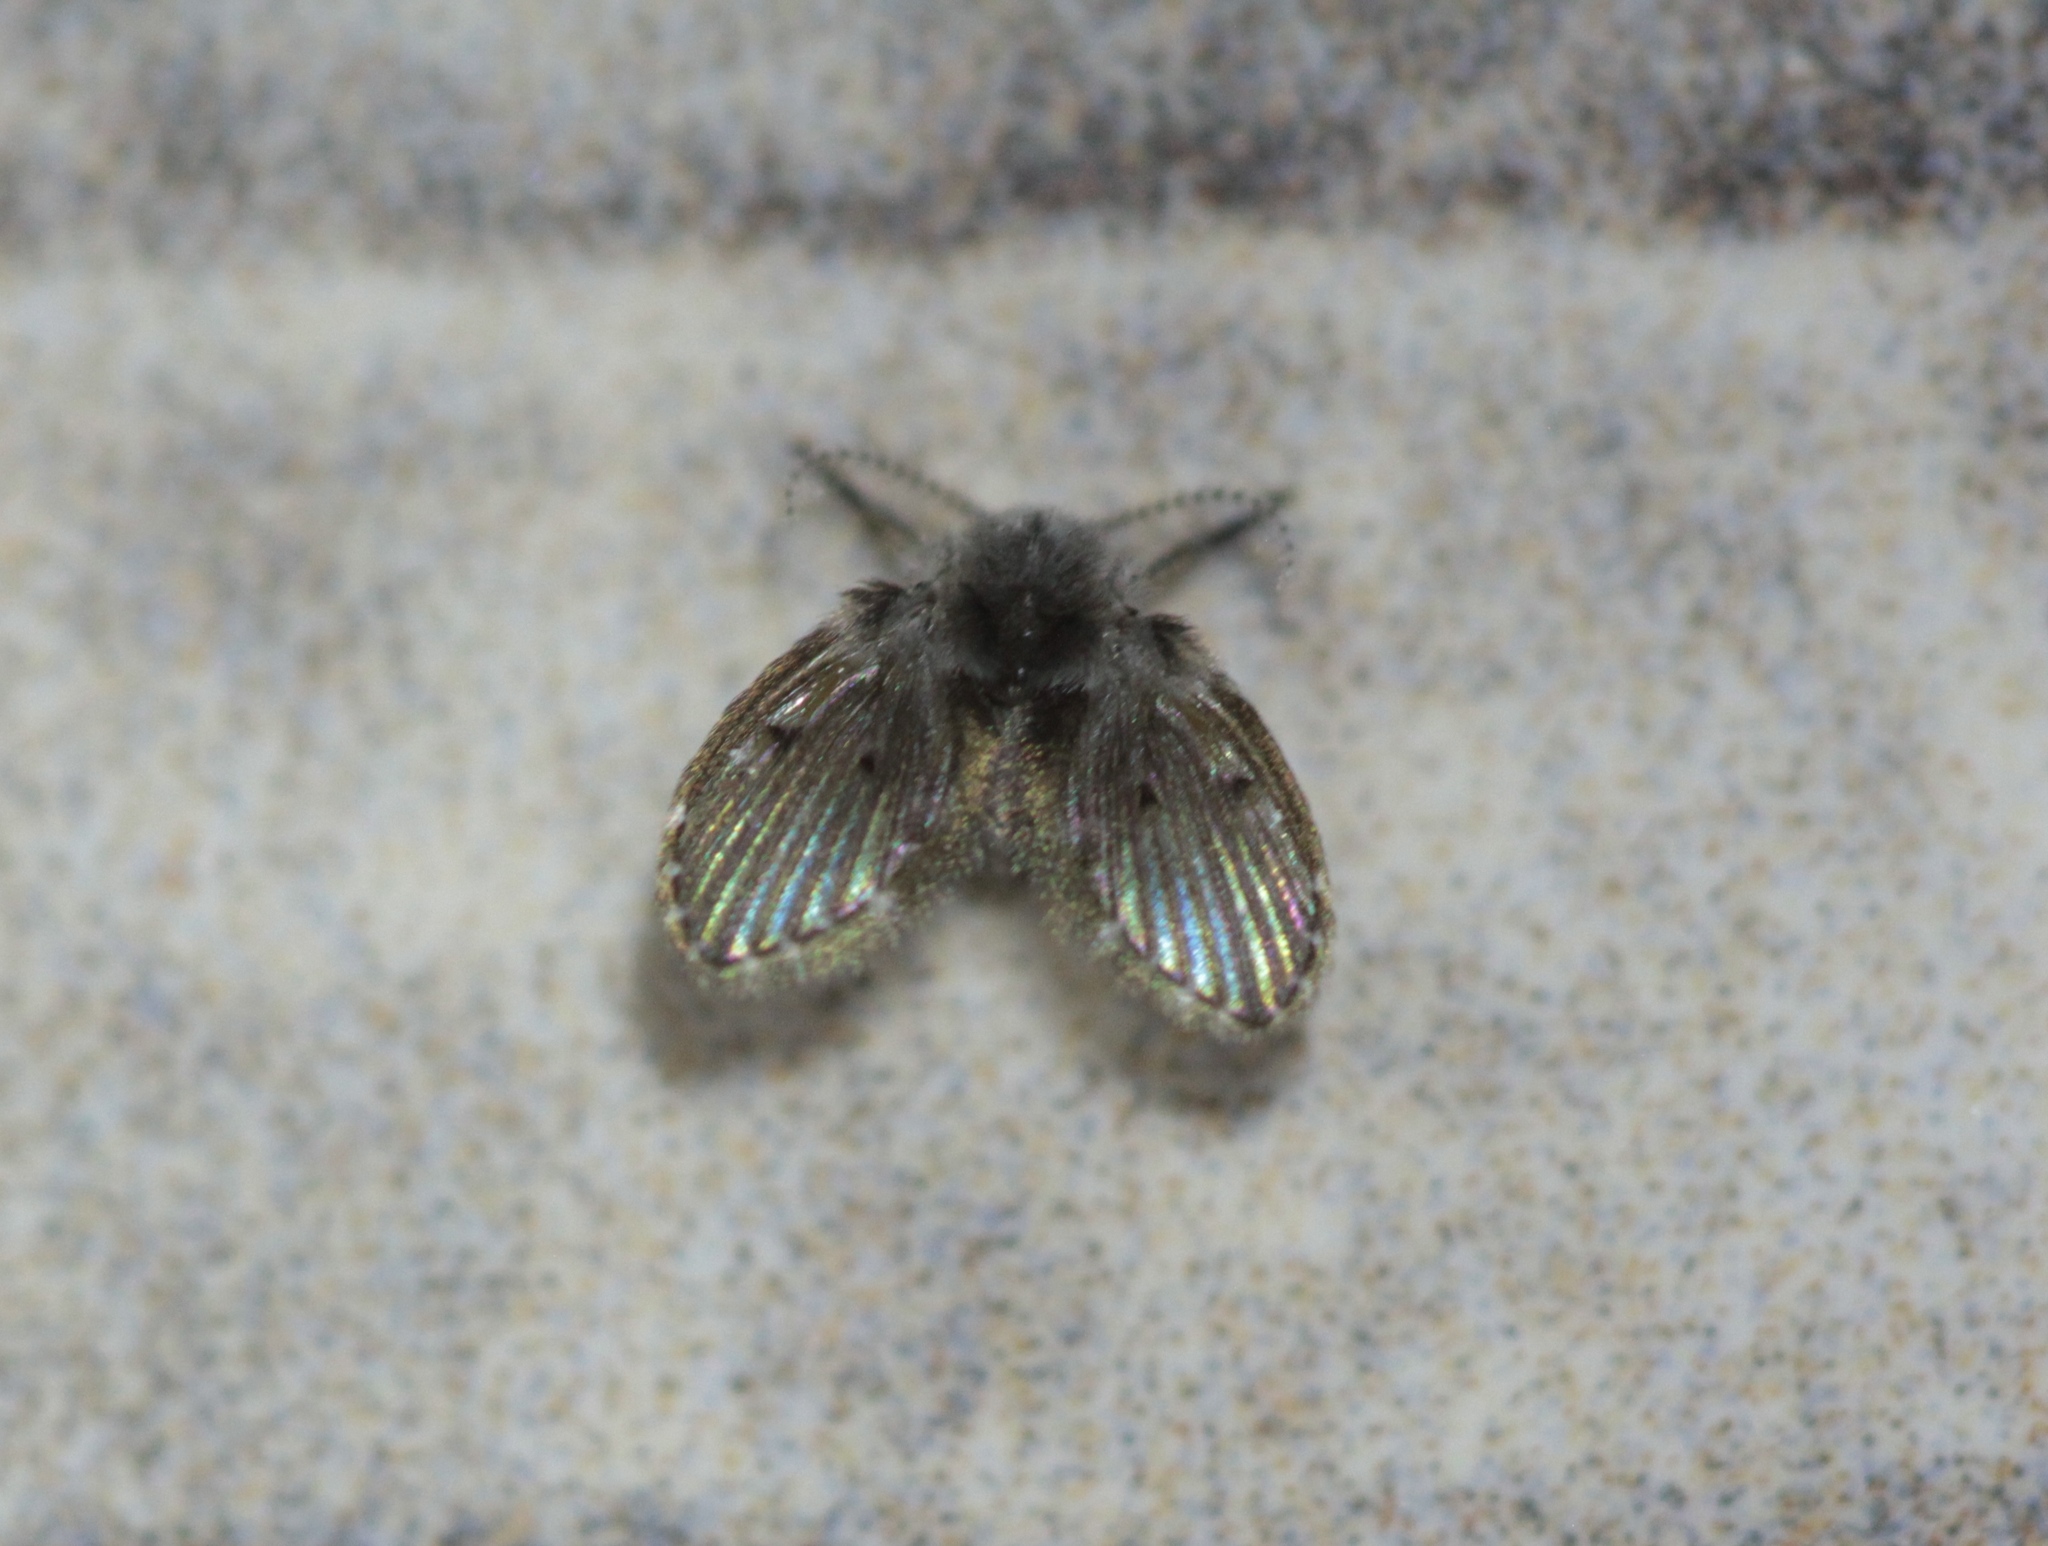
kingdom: Animalia
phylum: Arthropoda
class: Insecta
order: Diptera
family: Psychodidae
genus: Clogmia
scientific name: Clogmia albipunctatus
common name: White-spotted moth fly
